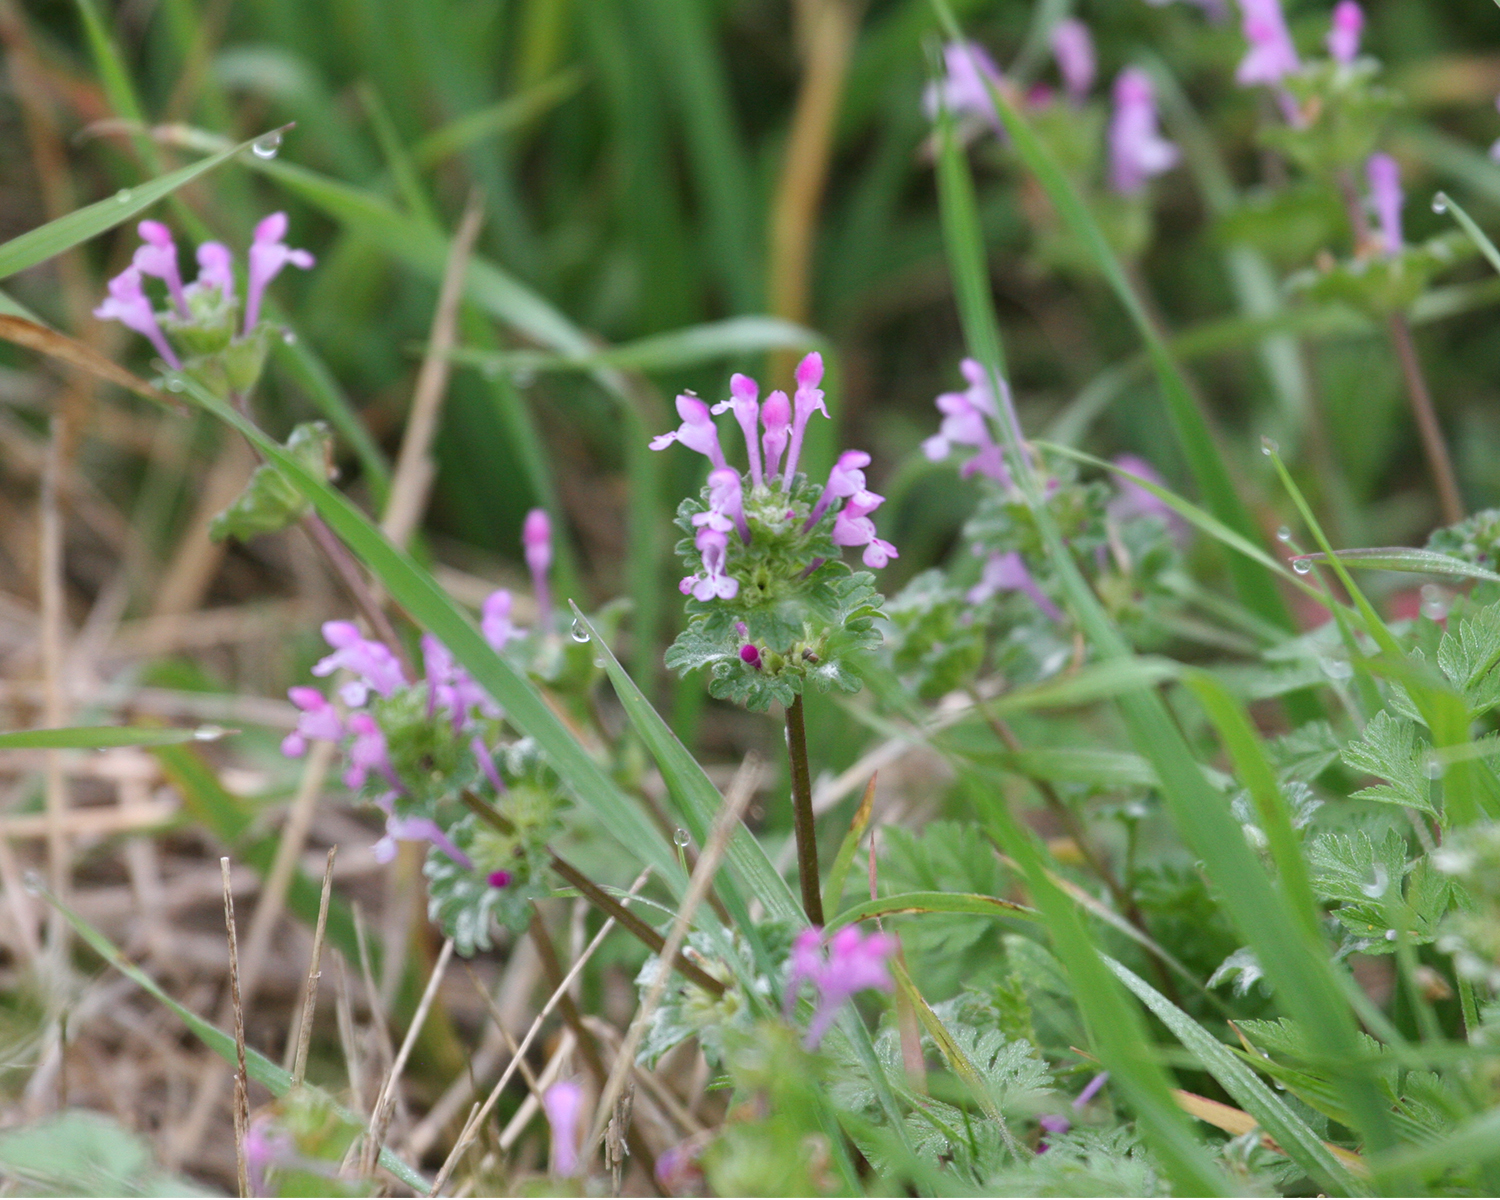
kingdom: Plantae
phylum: Tracheophyta
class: Magnoliopsida
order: Lamiales
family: Lamiaceae
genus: Lamium
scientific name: Lamium amplexicaule
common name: Henbit dead-nettle
